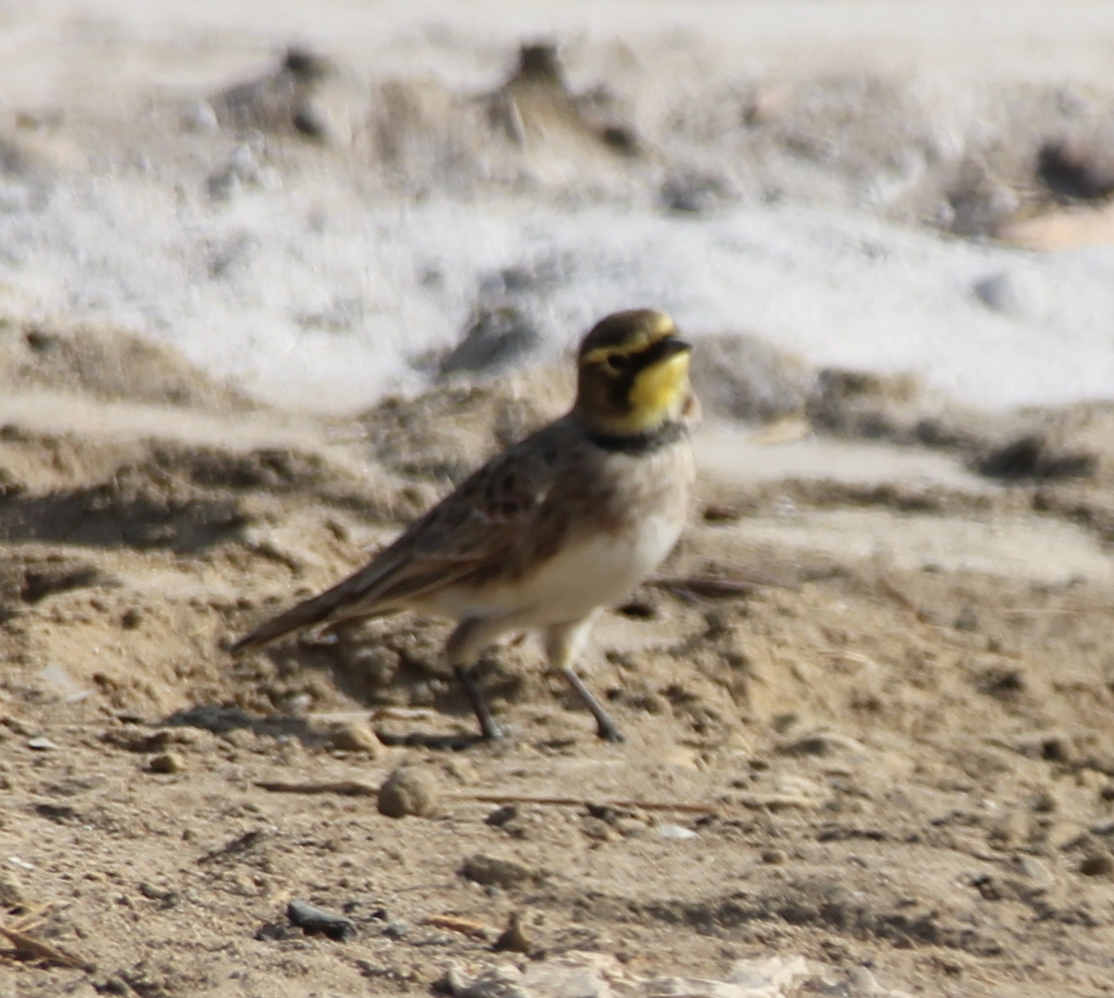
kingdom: Animalia
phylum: Chordata
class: Aves
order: Passeriformes
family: Alaudidae
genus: Eremophila
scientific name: Eremophila alpestris
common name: Horned lark
